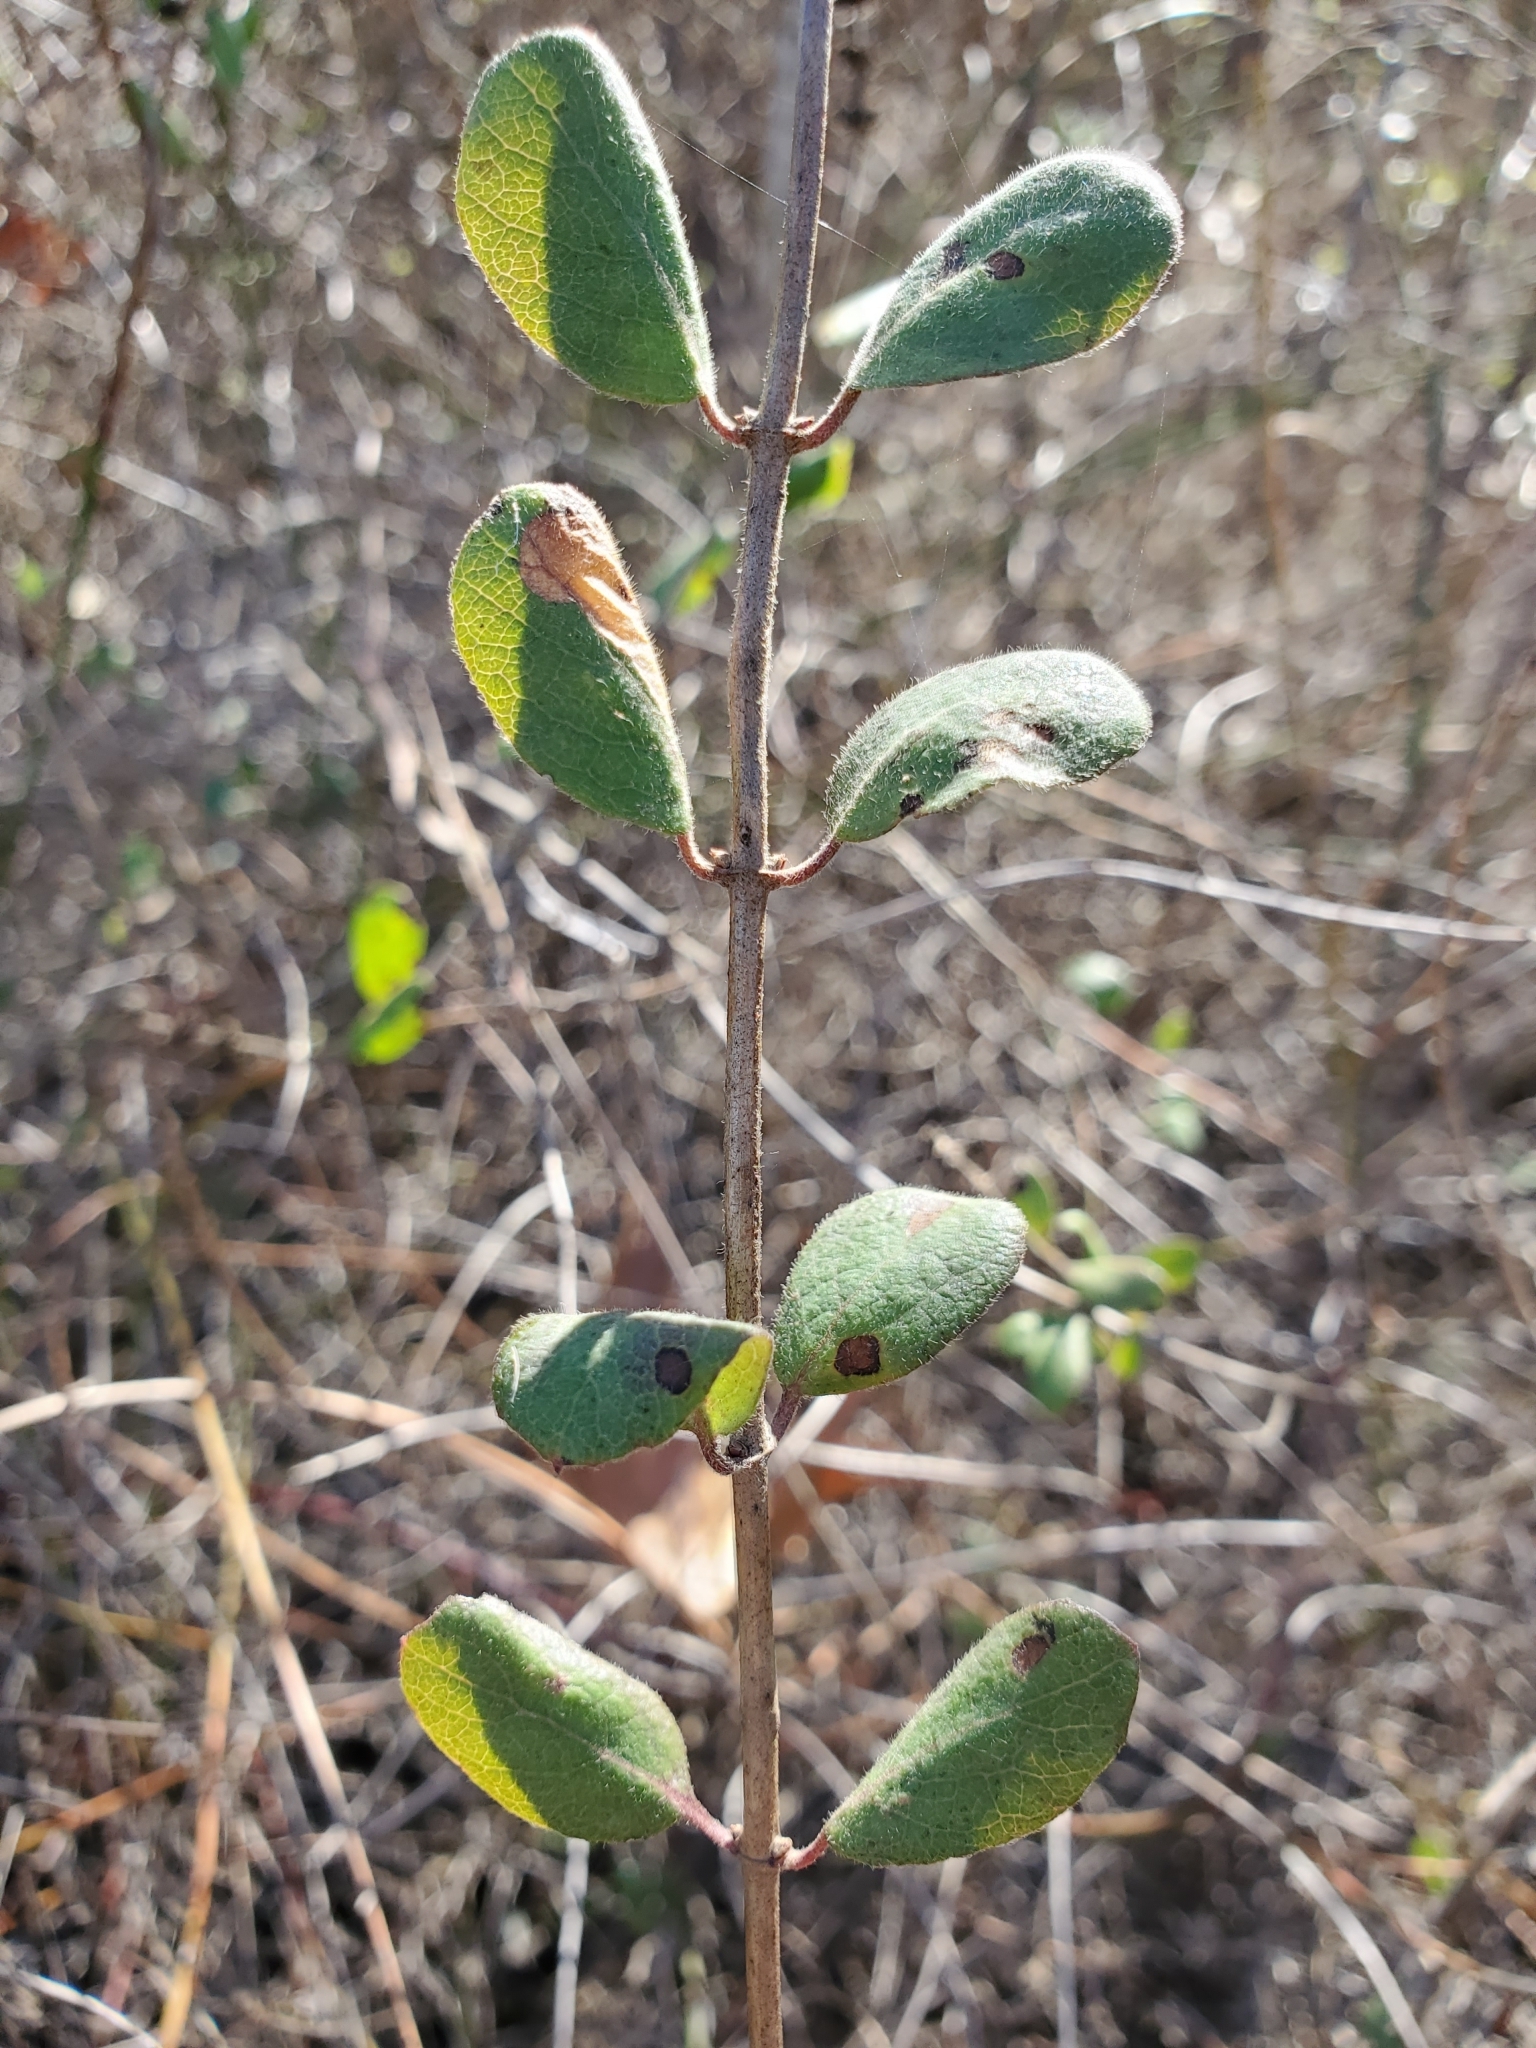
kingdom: Plantae
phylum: Tracheophyta
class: Magnoliopsida
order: Dipsacales
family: Caprifoliaceae
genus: Lonicera
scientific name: Lonicera subspicata
